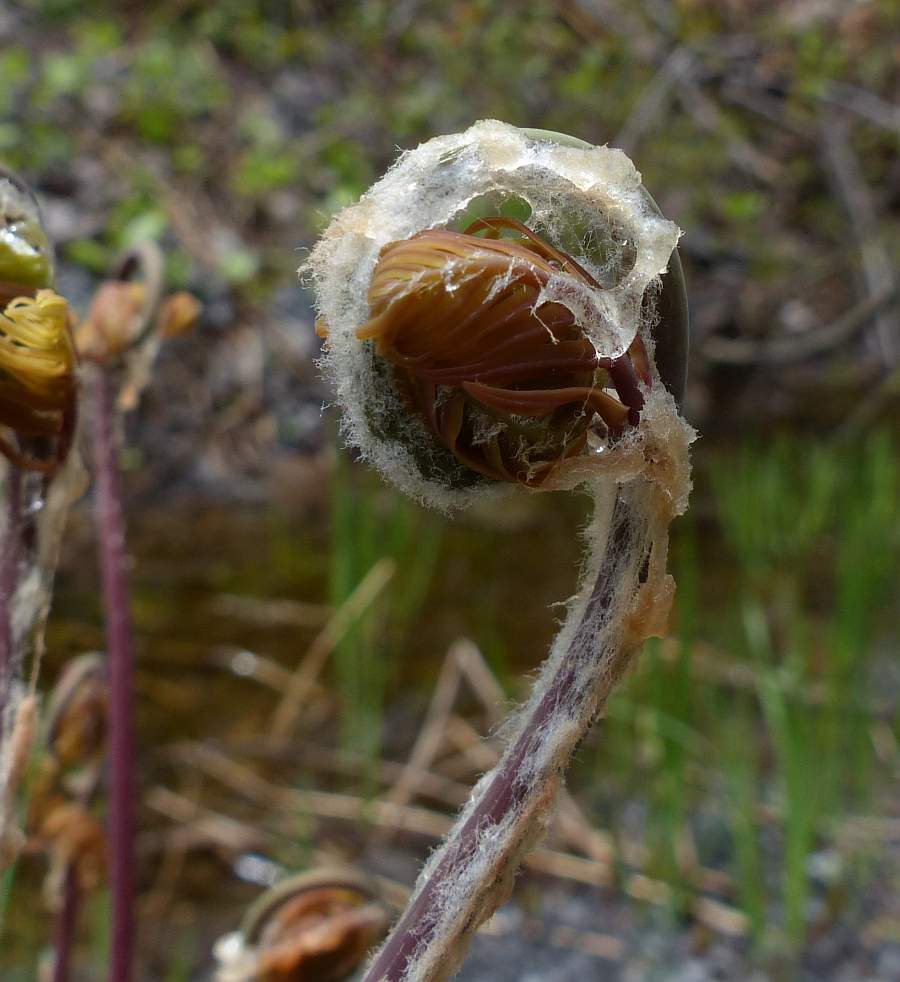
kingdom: Plantae
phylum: Tracheophyta
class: Polypodiopsida
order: Osmundales
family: Osmundaceae
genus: Osmunda
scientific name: Osmunda spectabilis
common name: American royal fern
